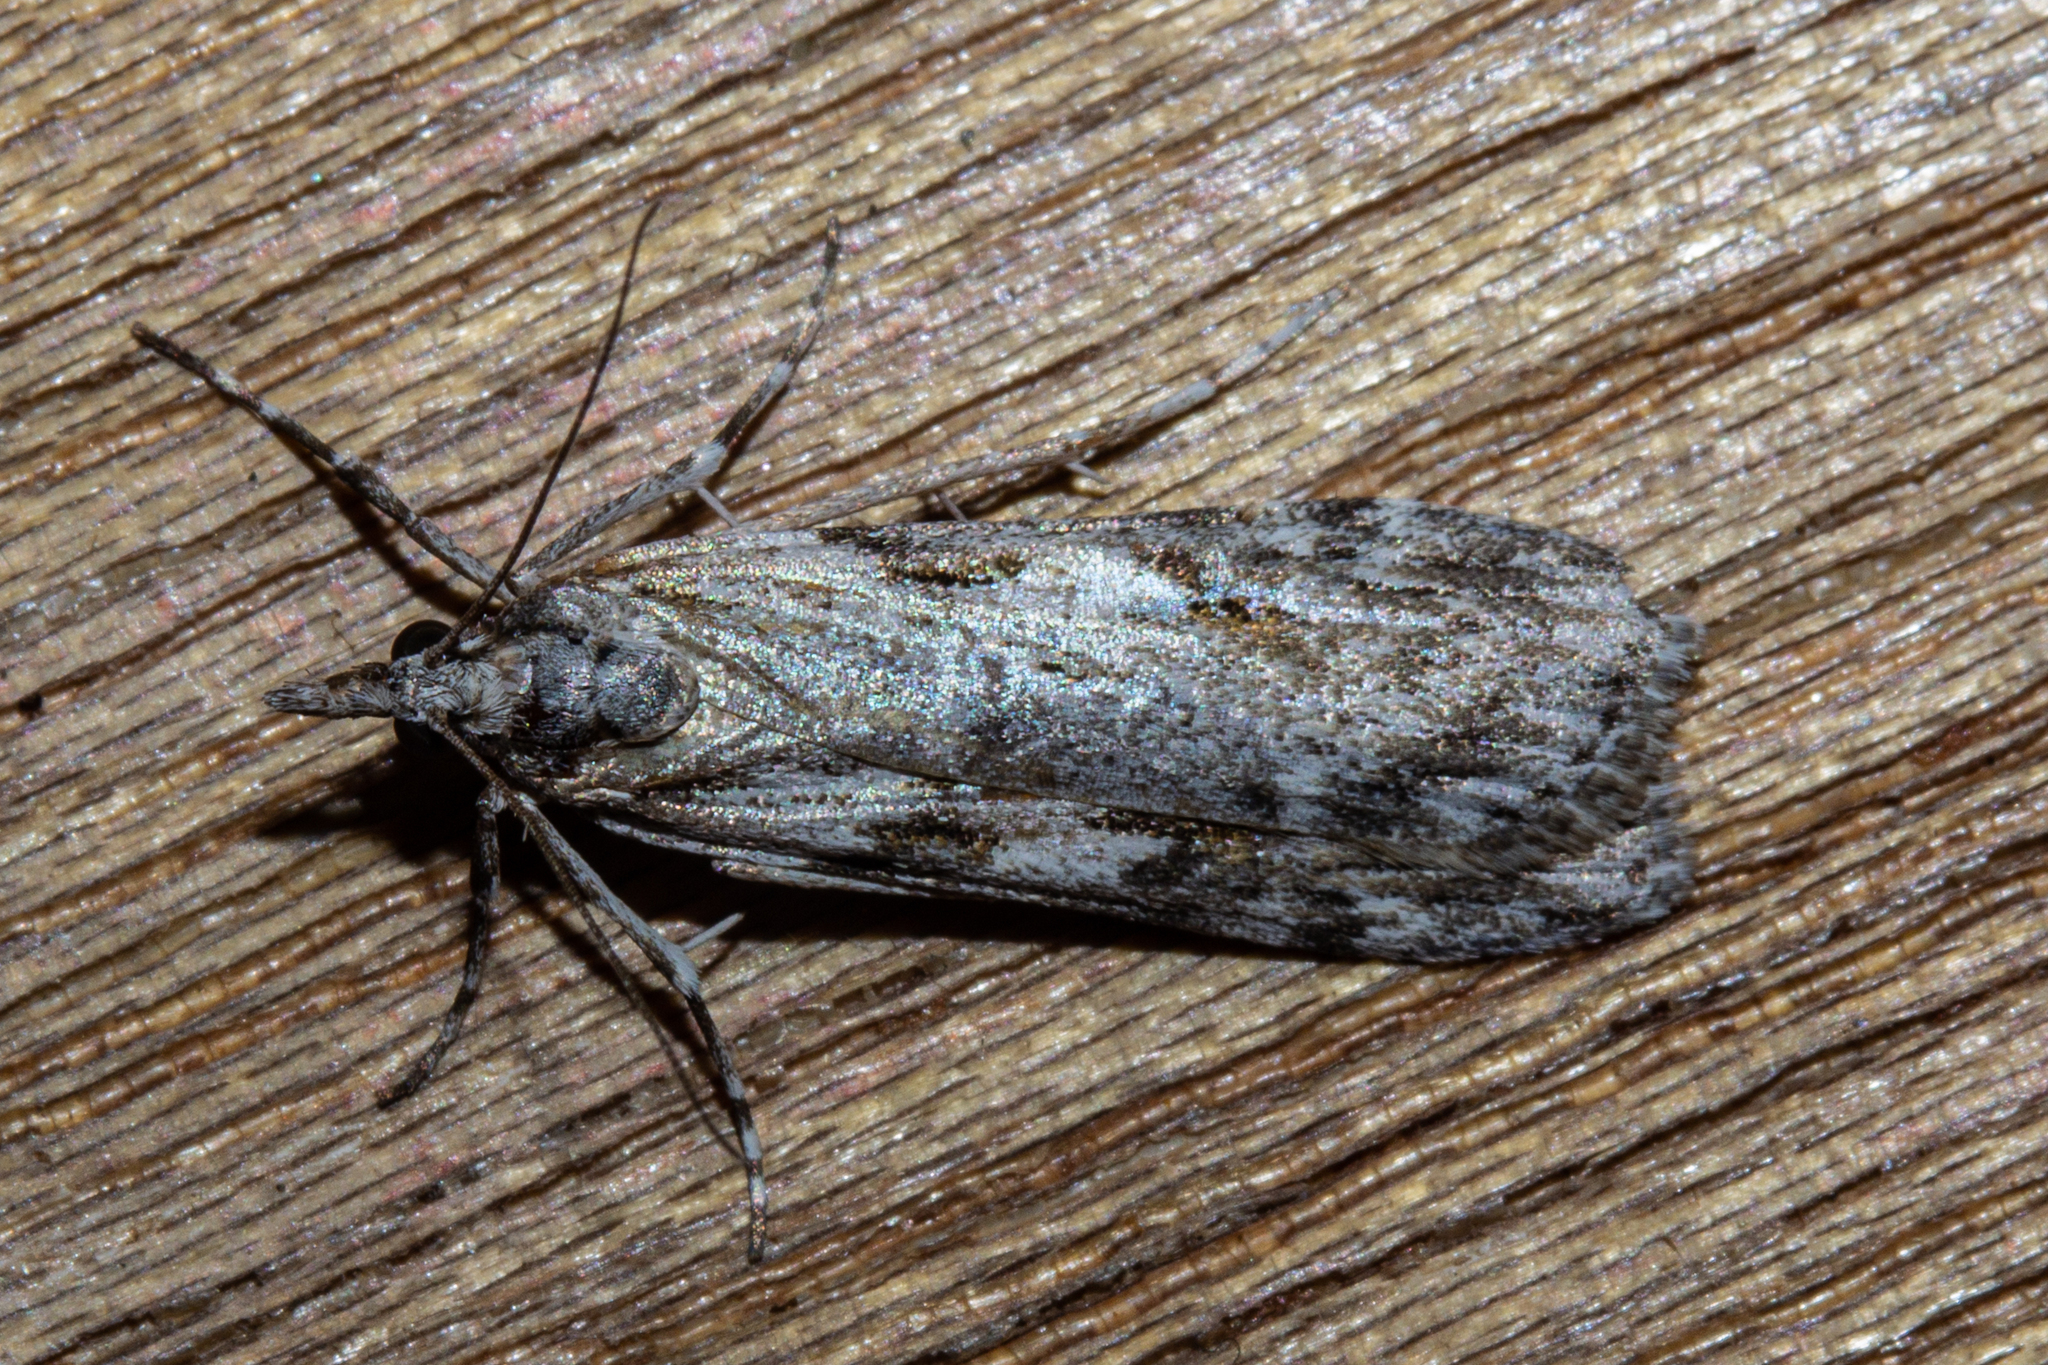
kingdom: Animalia
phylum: Arthropoda
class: Insecta
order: Lepidoptera
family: Crambidae
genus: Scoparia
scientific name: Scoparia halopis
